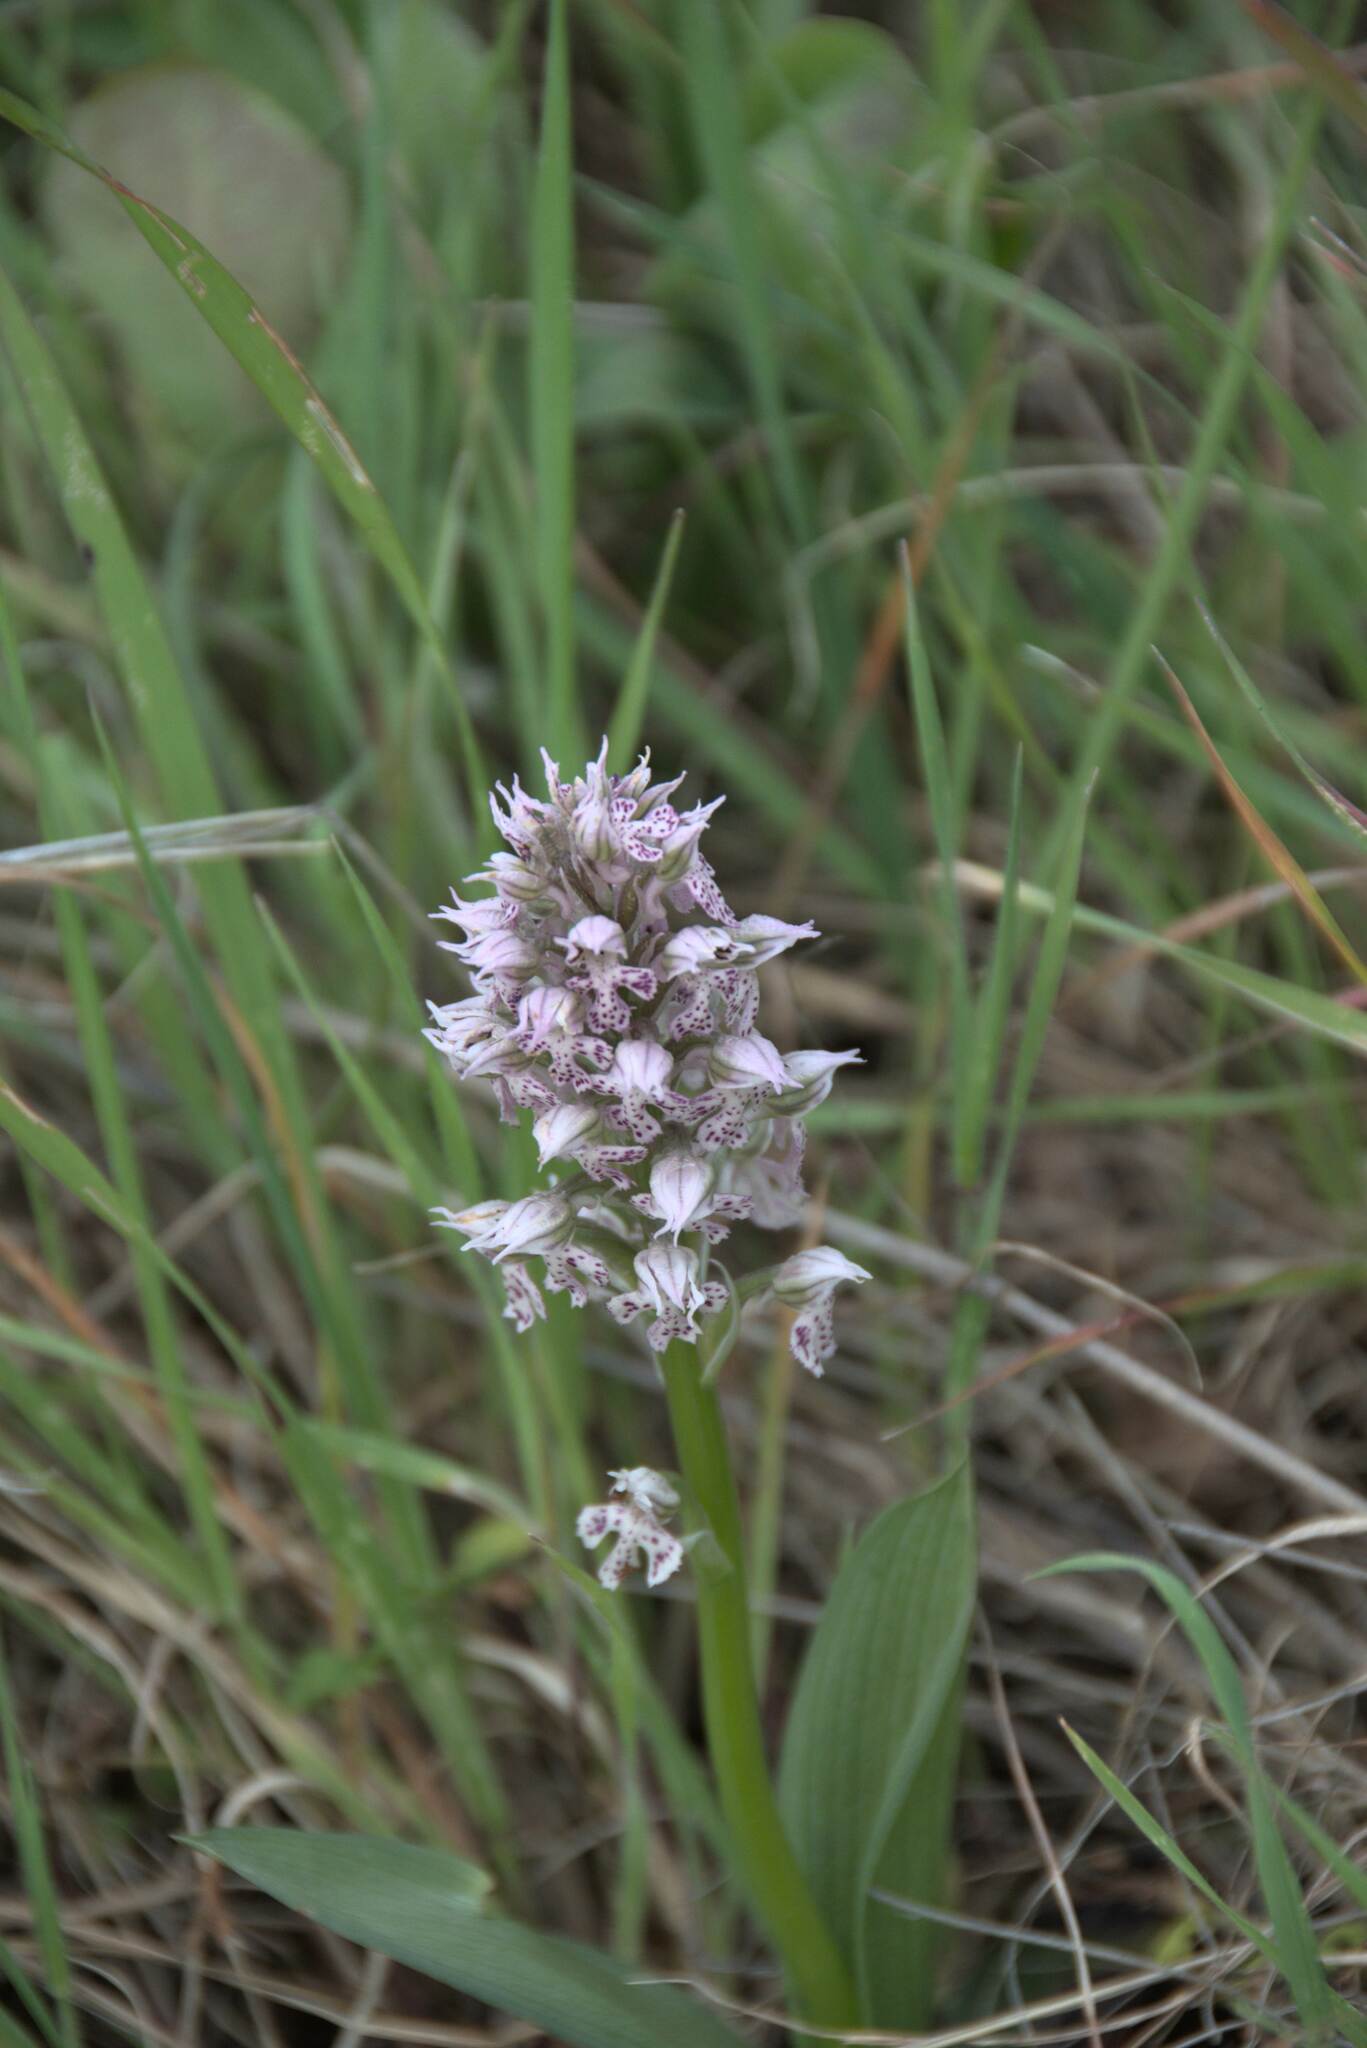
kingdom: Plantae
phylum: Tracheophyta
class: Liliopsida
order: Asparagales
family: Orchidaceae
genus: Neotinea
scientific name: Neotinea lactea
